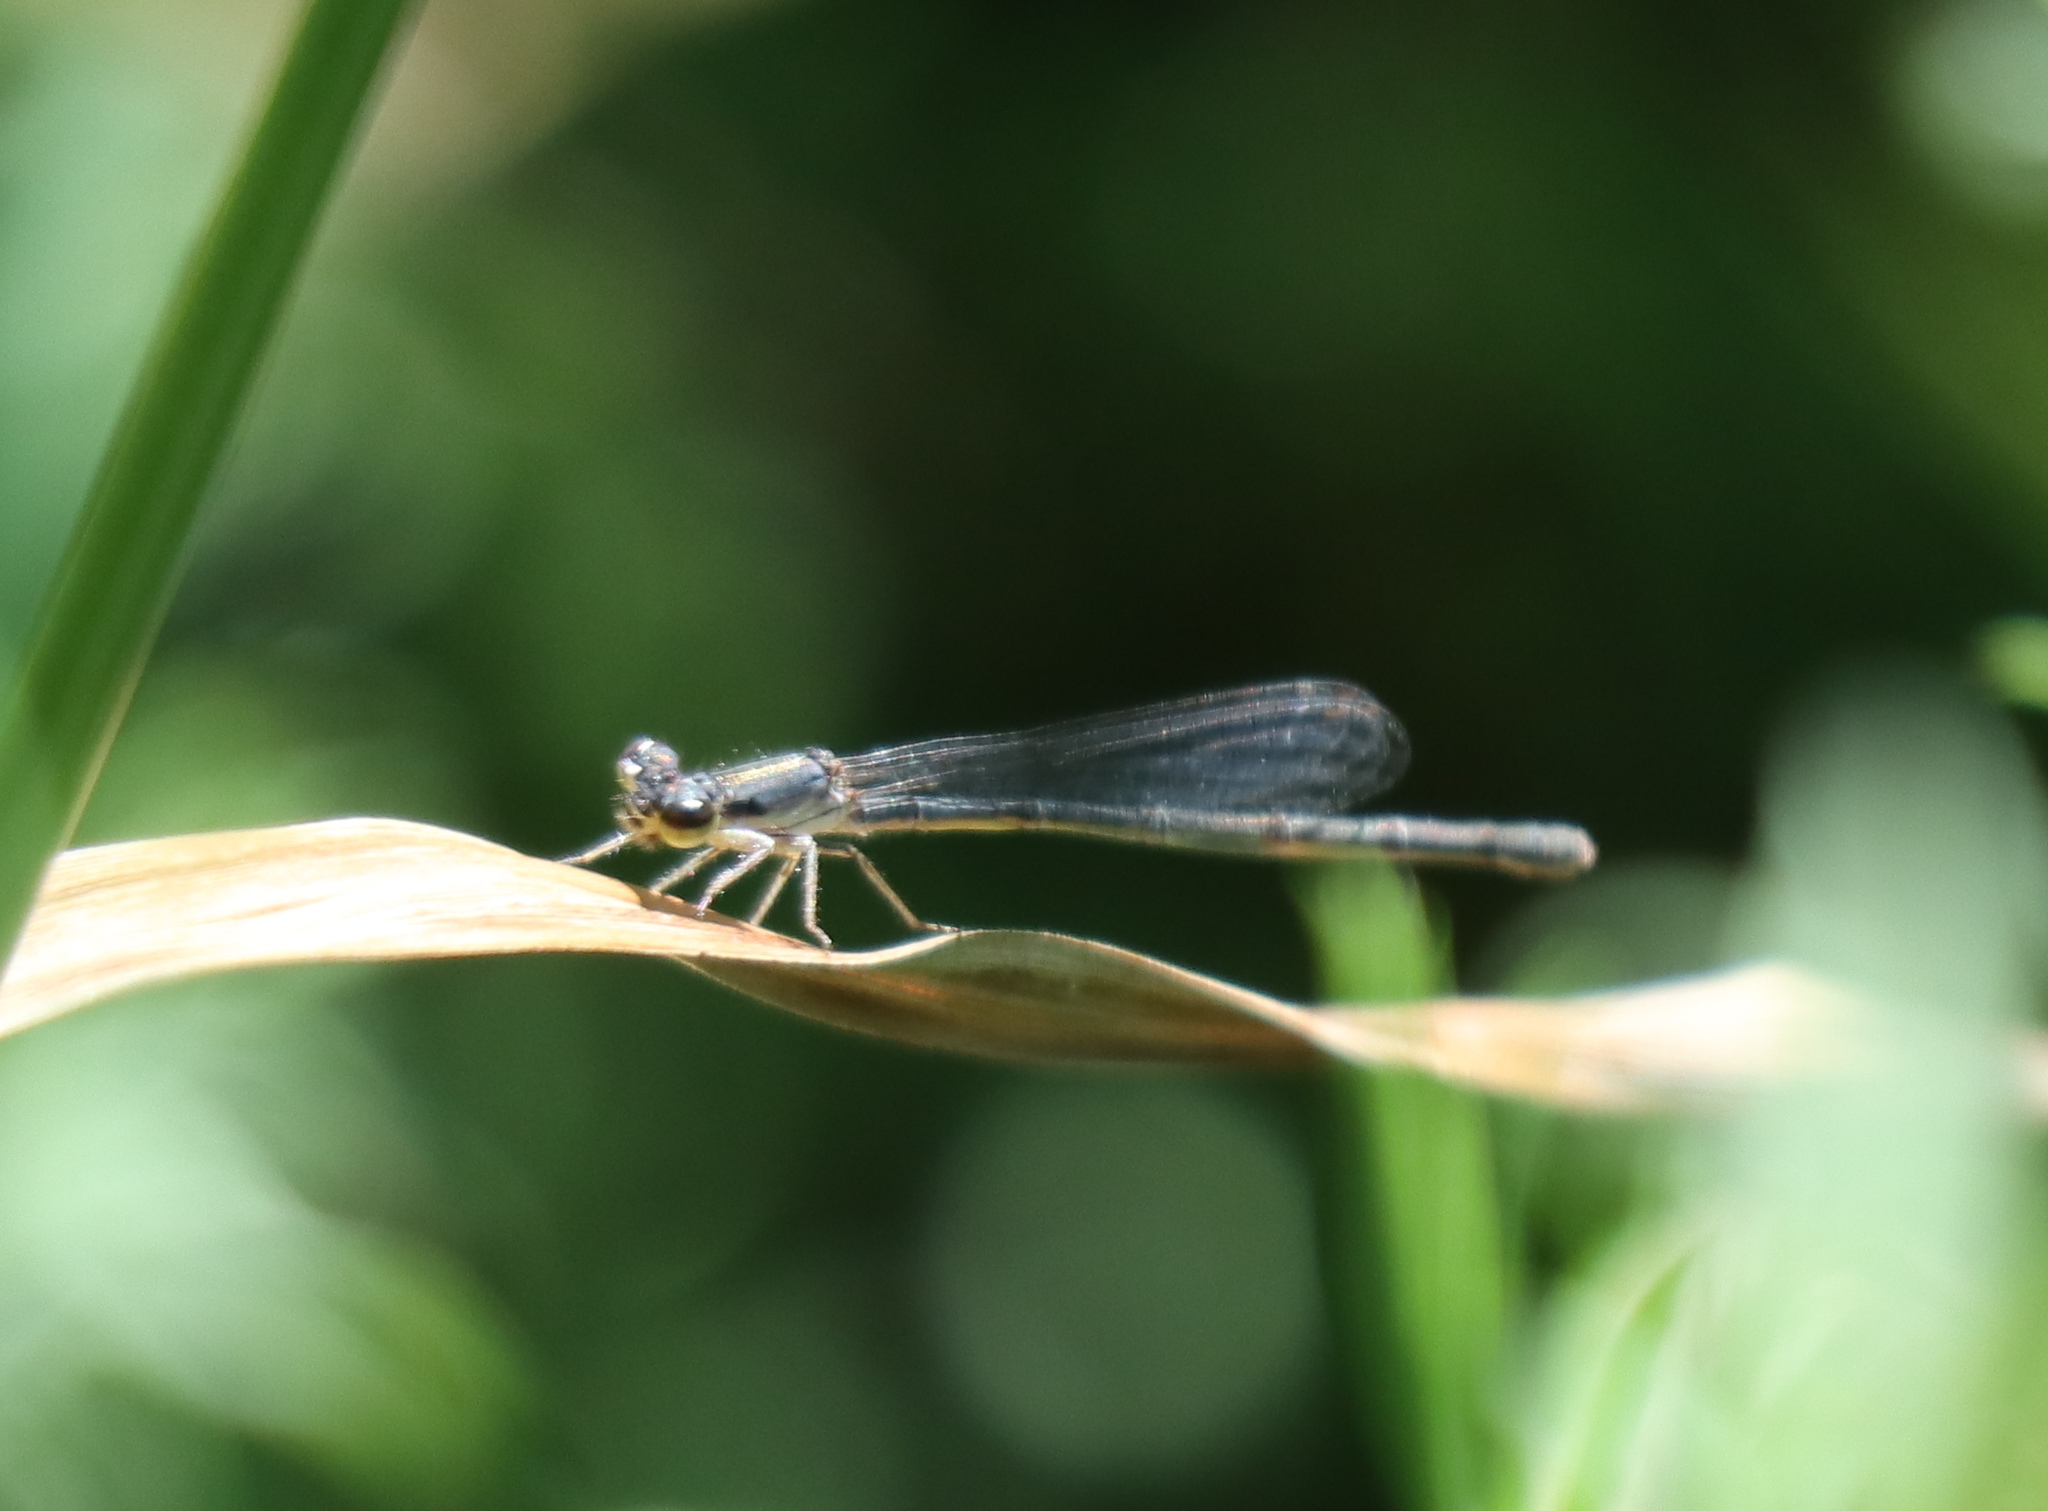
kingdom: Animalia
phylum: Arthropoda
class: Insecta
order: Odonata
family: Coenagrionidae
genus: Ischnura
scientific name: Ischnura posita
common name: Fragile forktail
